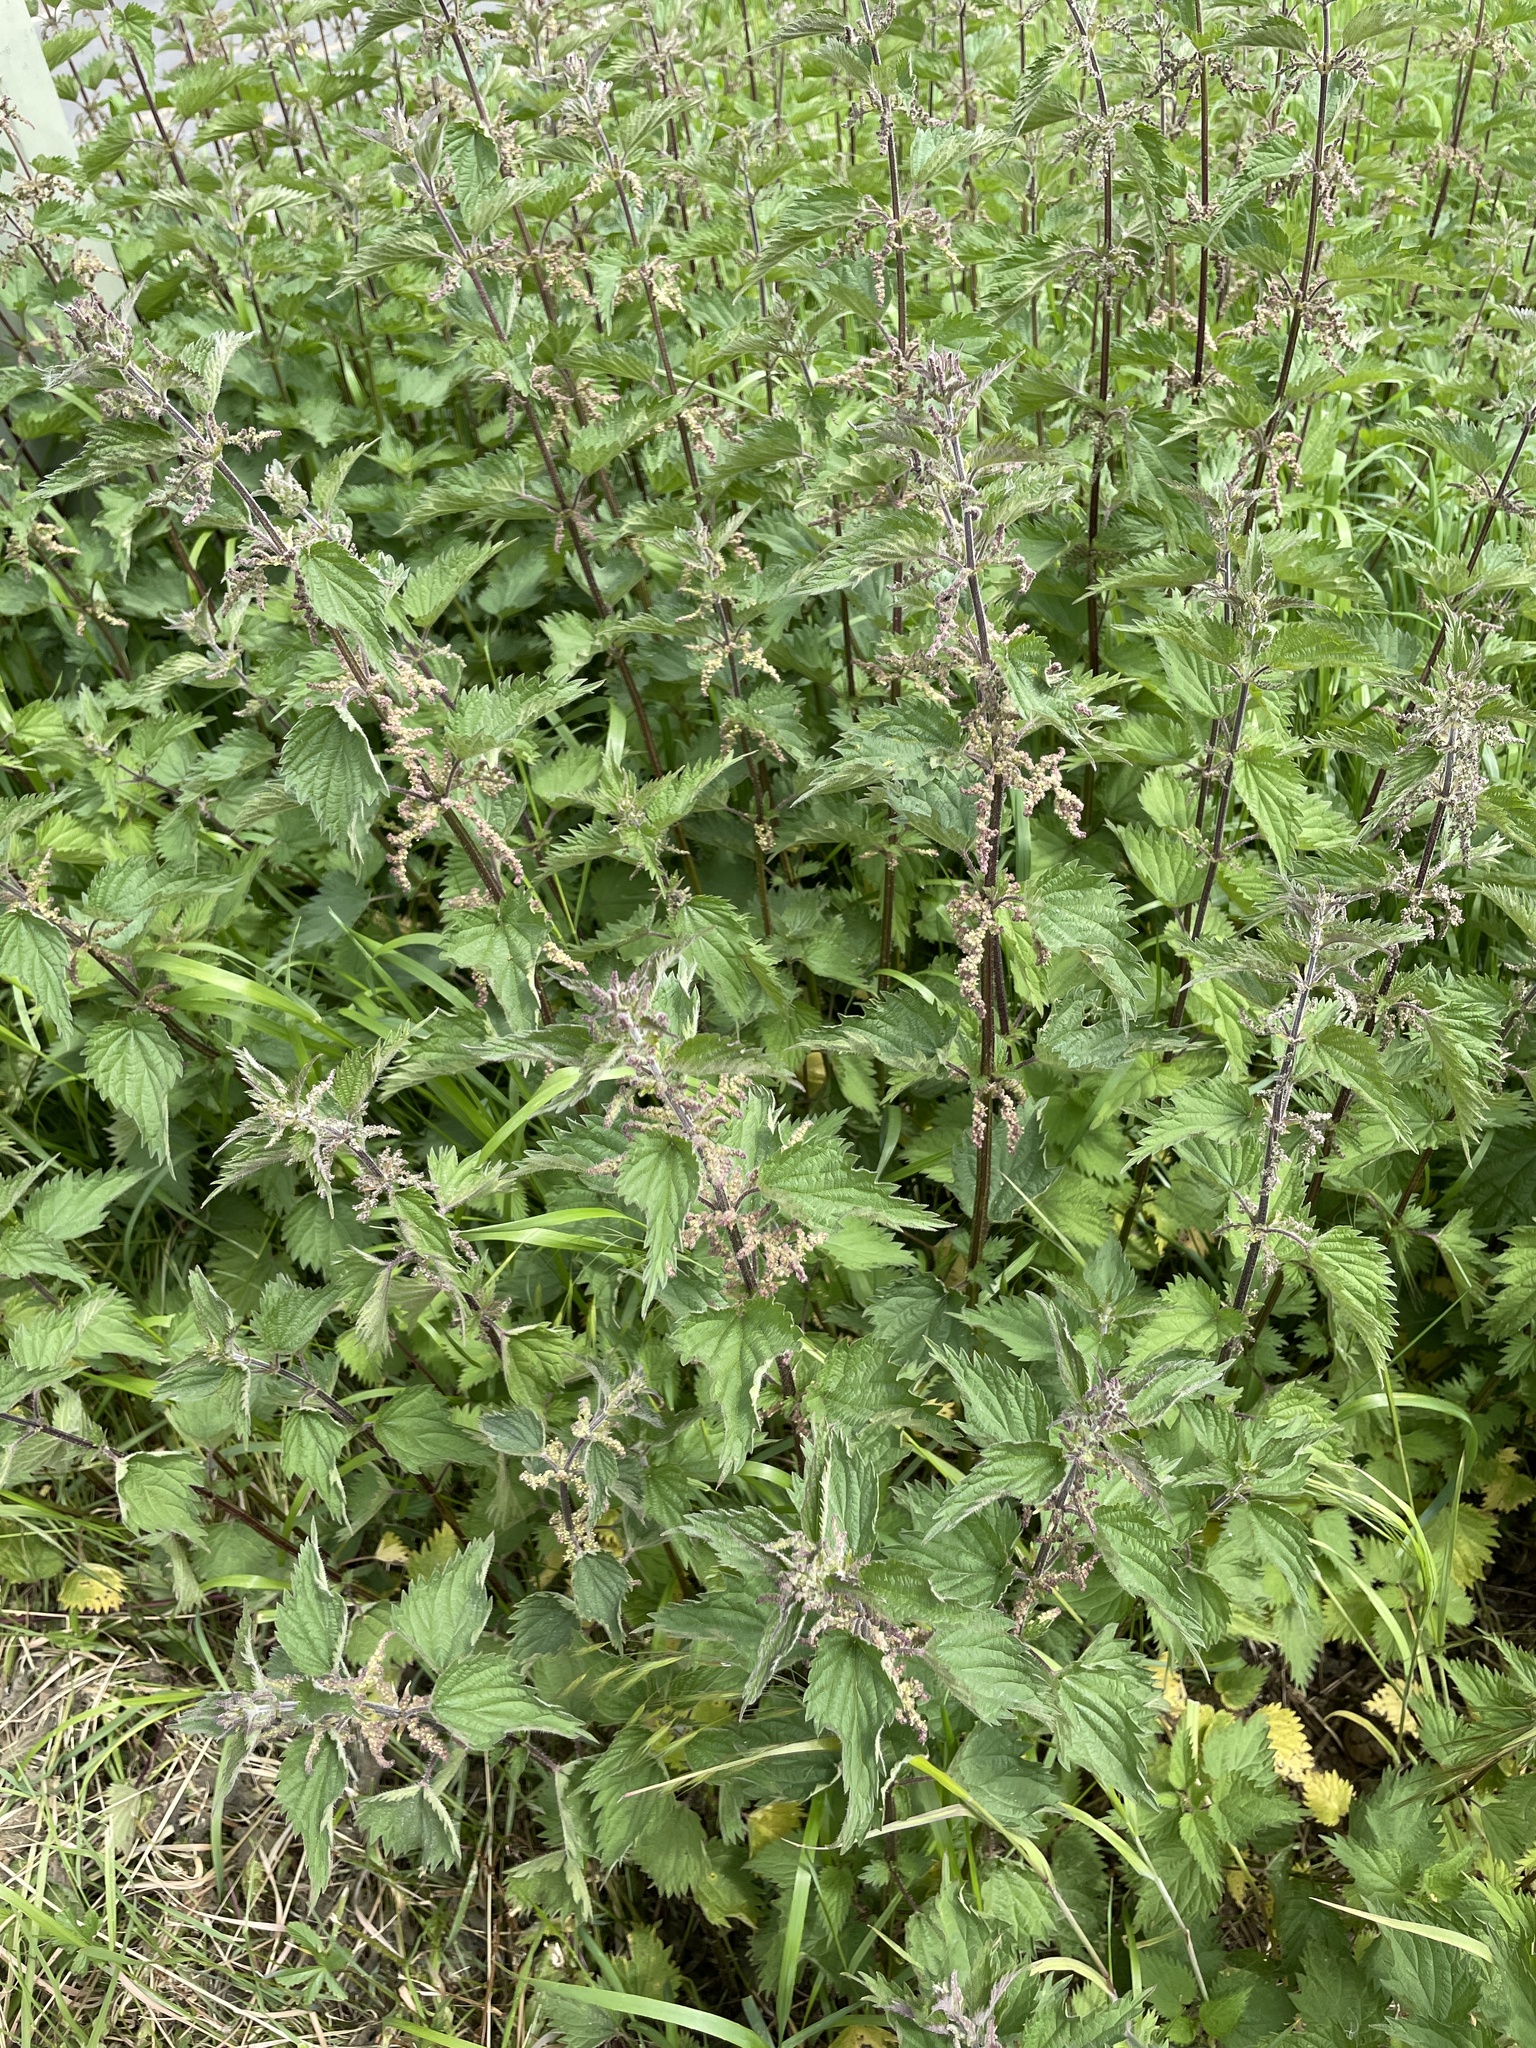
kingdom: Plantae
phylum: Tracheophyta
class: Magnoliopsida
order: Rosales
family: Urticaceae
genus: Urtica
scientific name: Urtica dioica
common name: Common nettle
